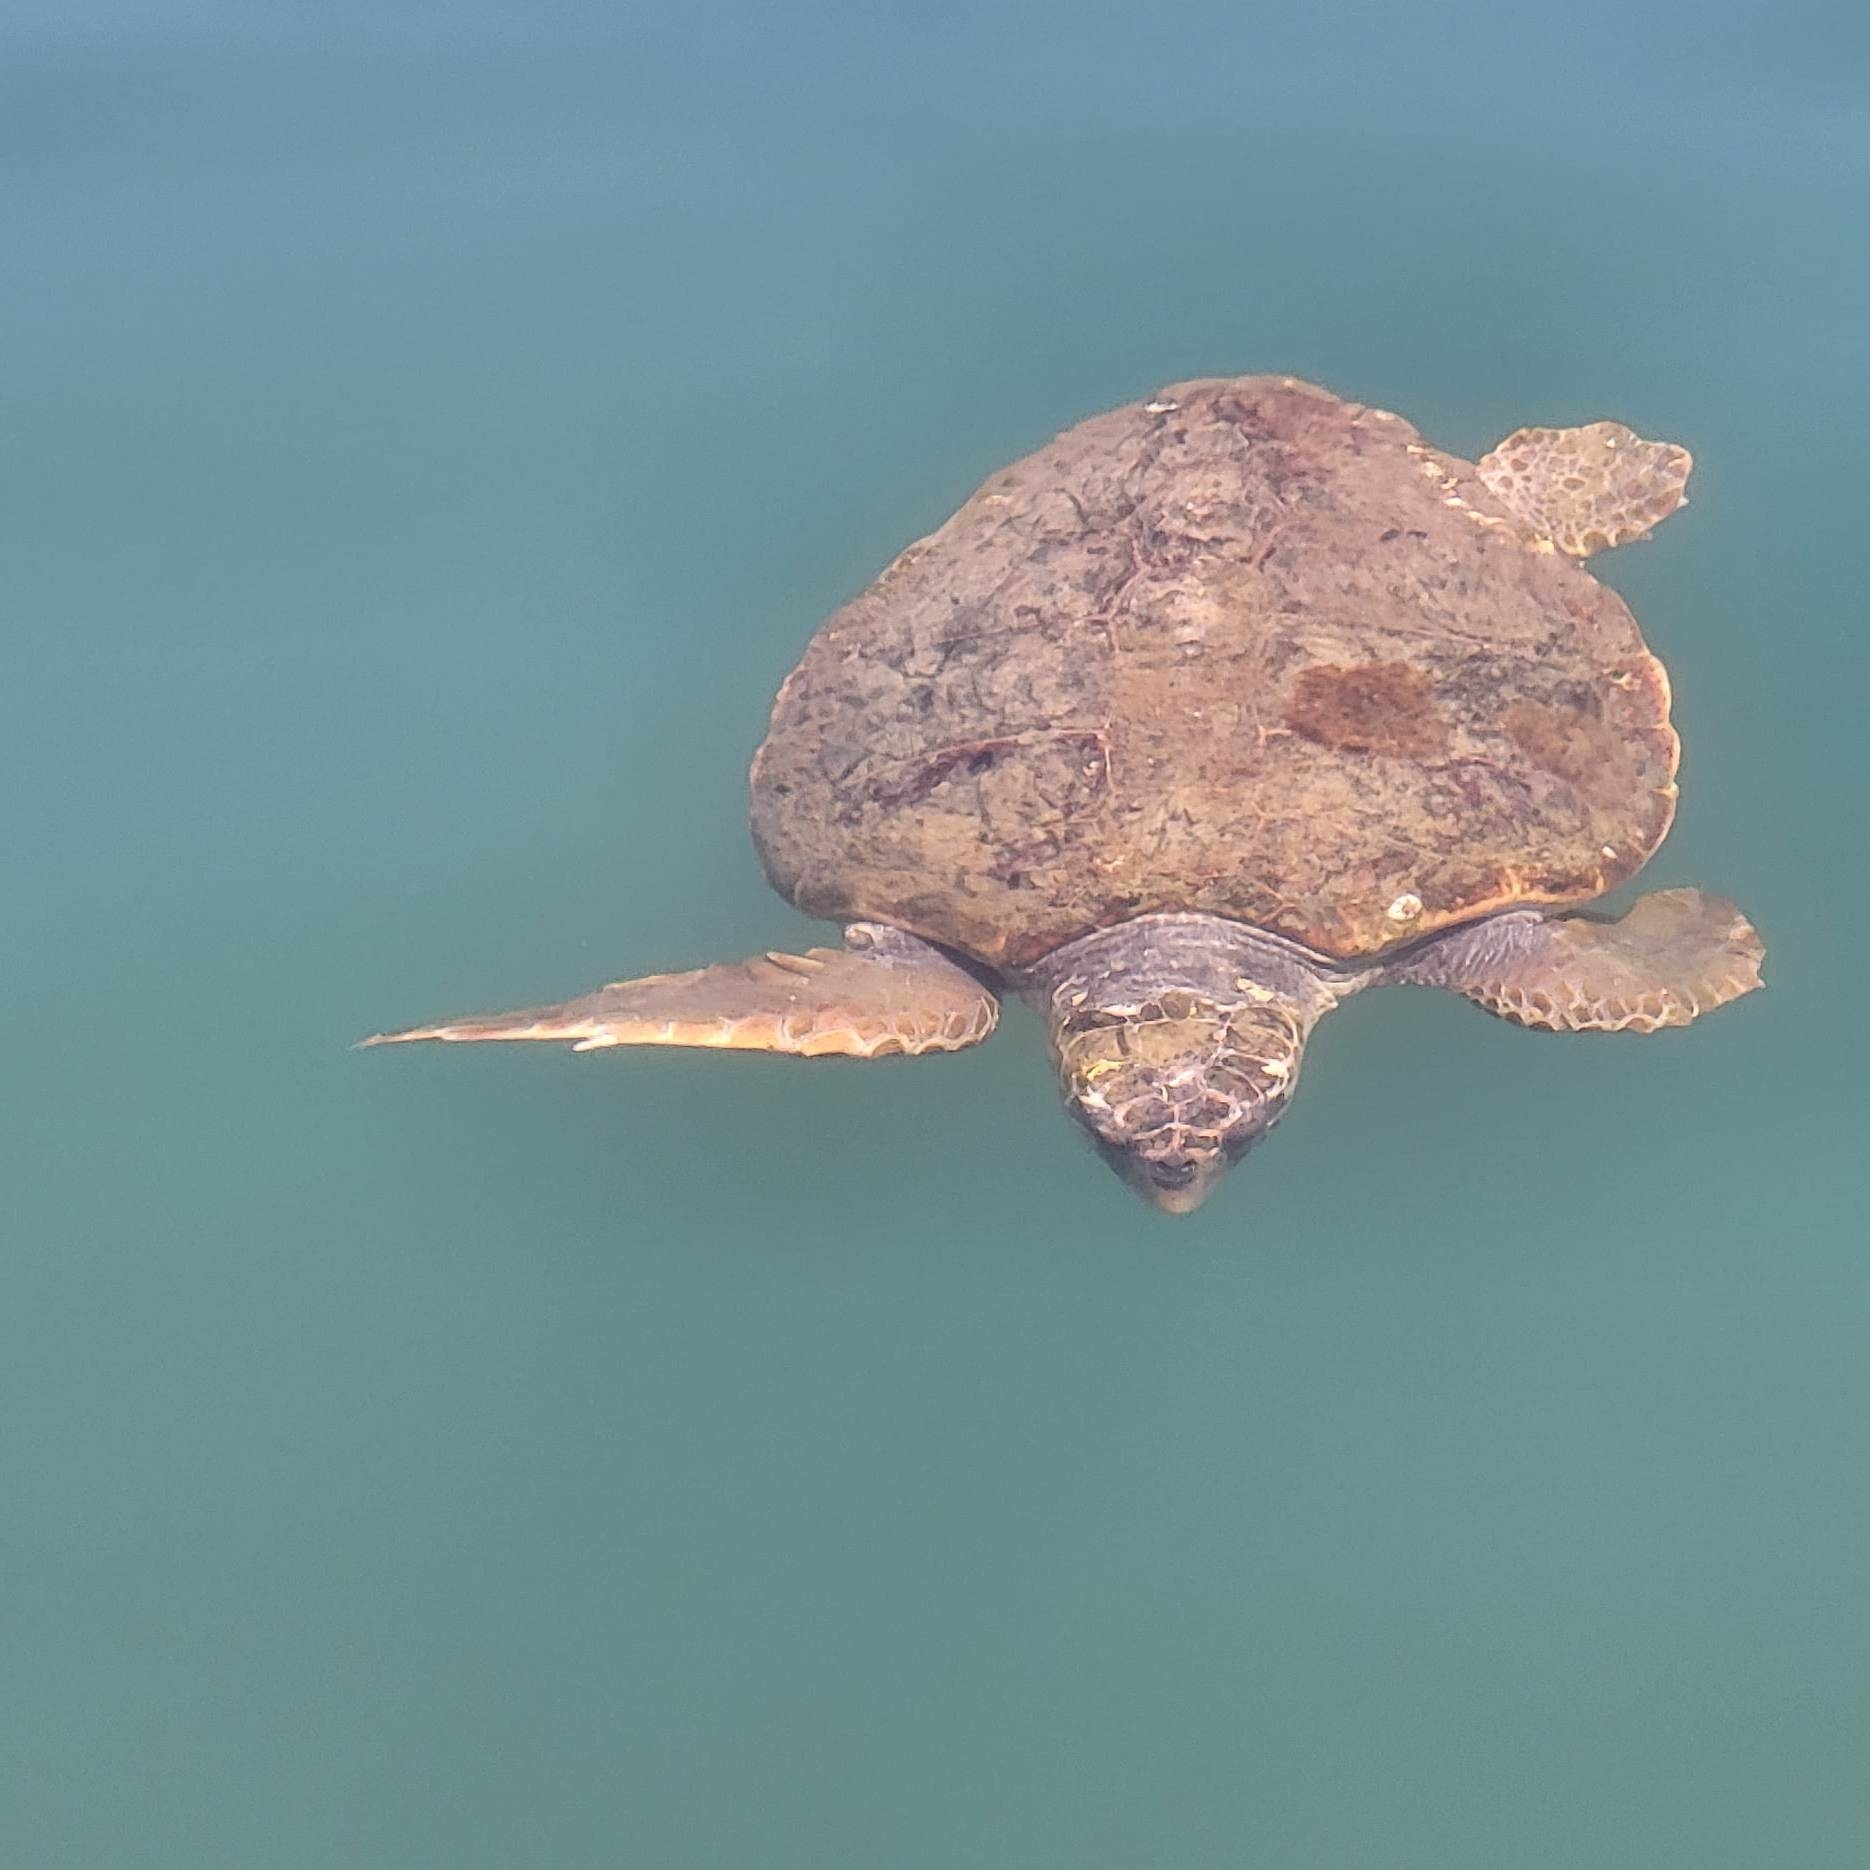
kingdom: Animalia
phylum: Chordata
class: Testudines
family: Cheloniidae
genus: Caretta
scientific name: Caretta caretta
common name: Loggerhead sea turtle
